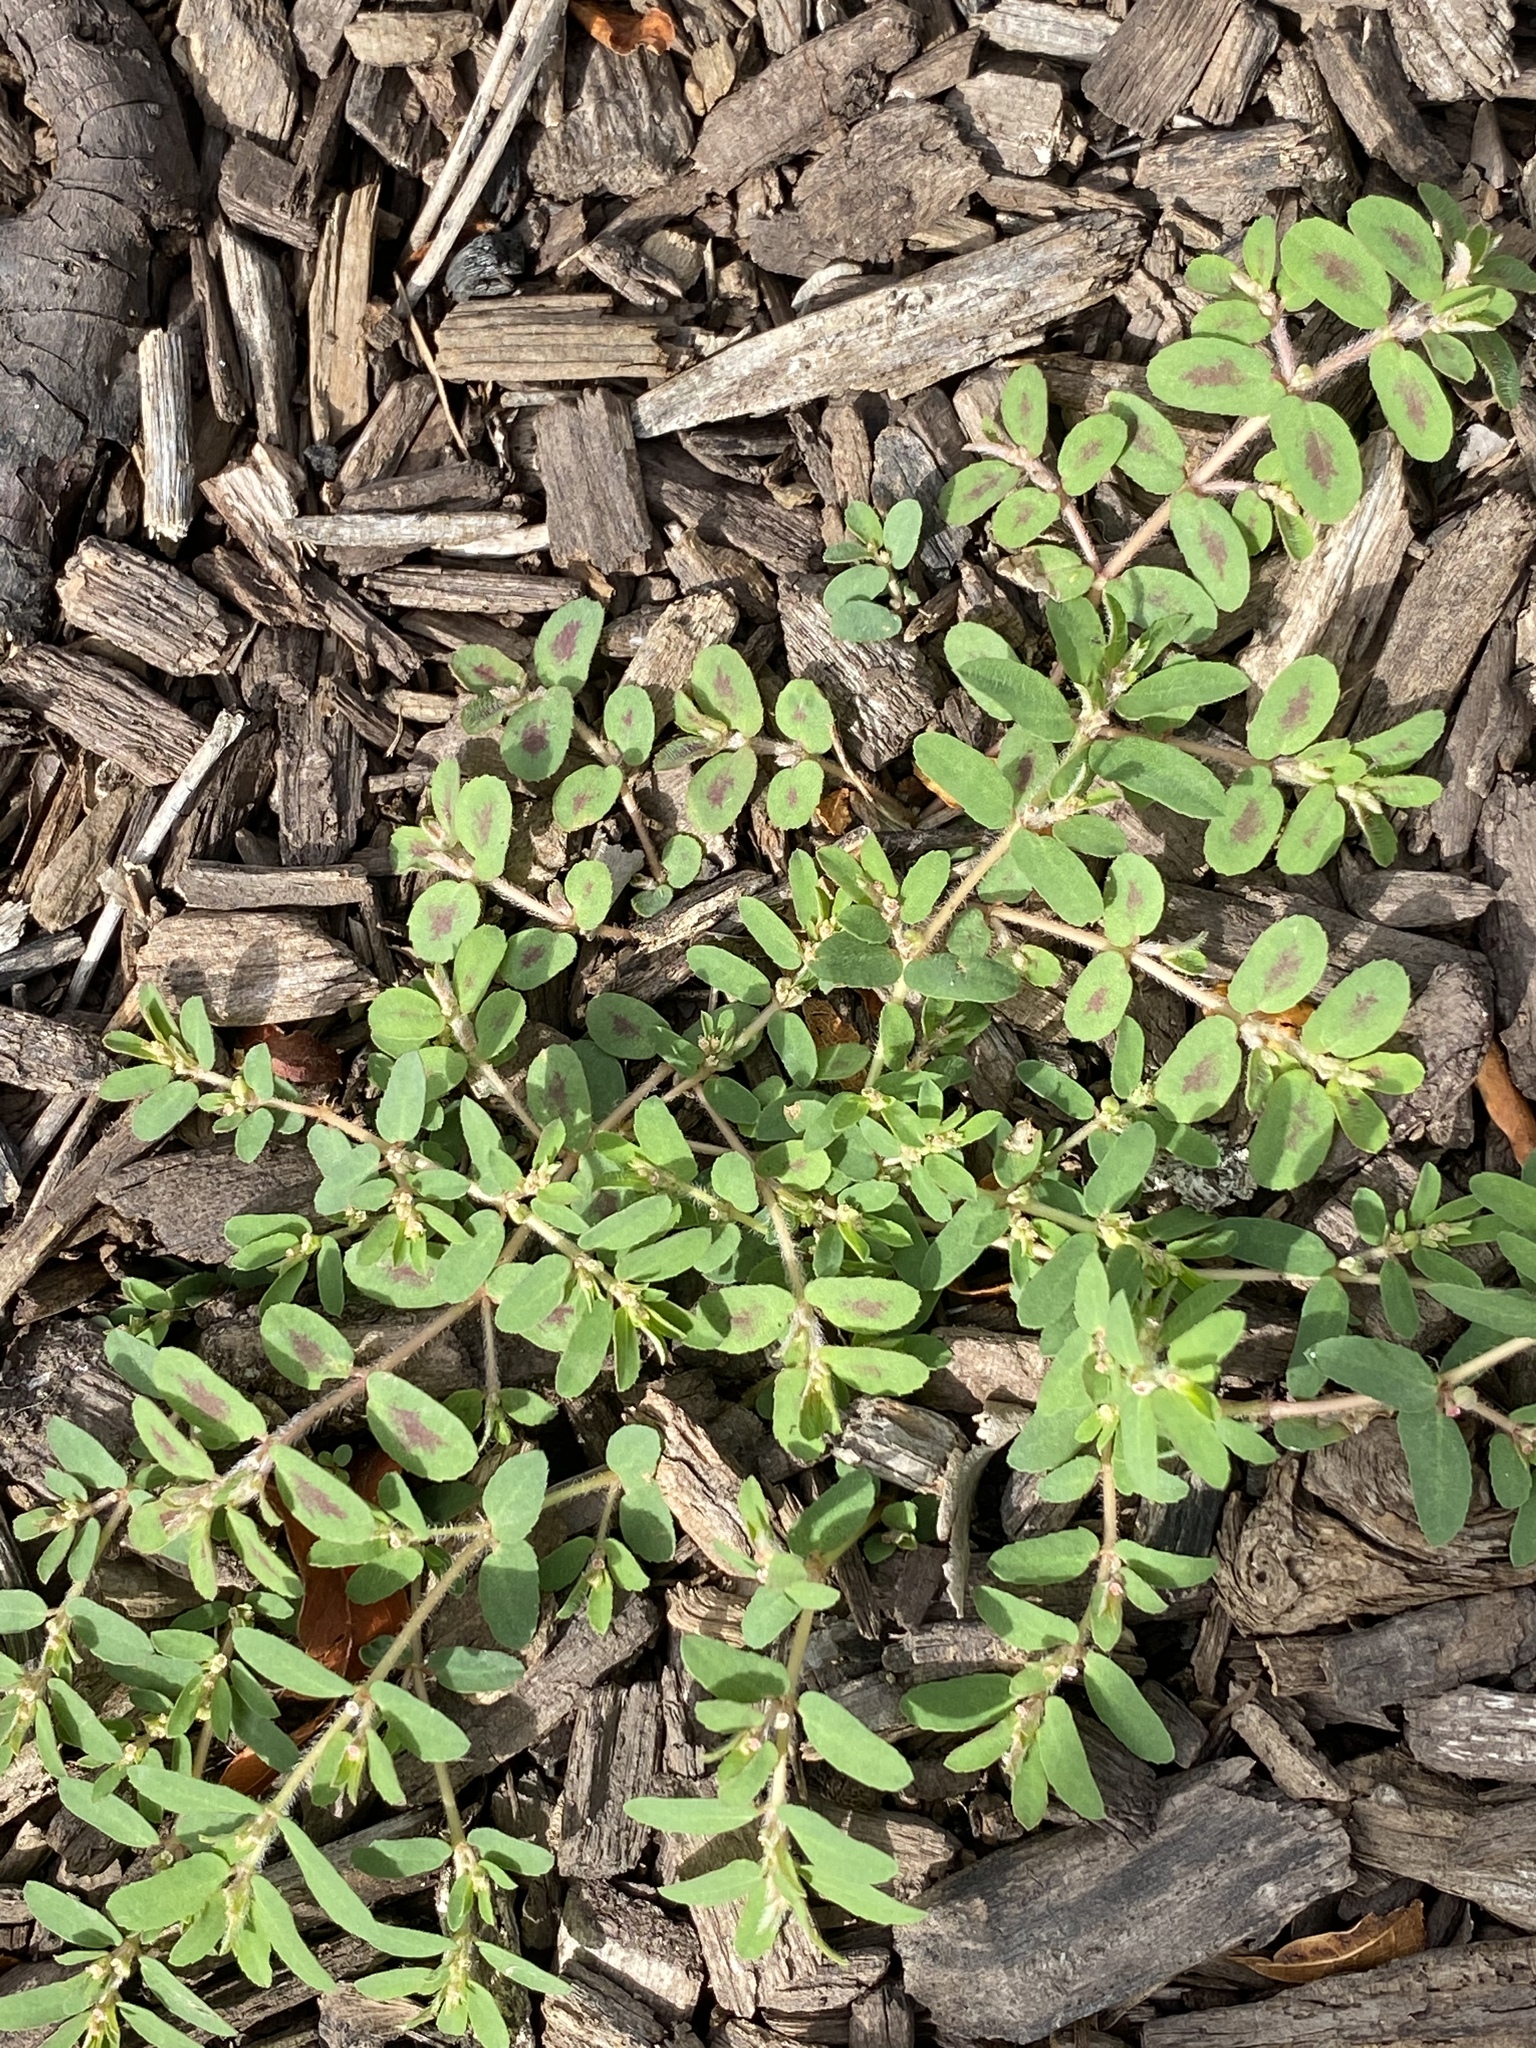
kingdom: Plantae
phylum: Tracheophyta
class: Magnoliopsida
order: Malpighiales
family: Euphorbiaceae
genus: Euphorbia
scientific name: Euphorbia maculata
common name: Spotted spurge
